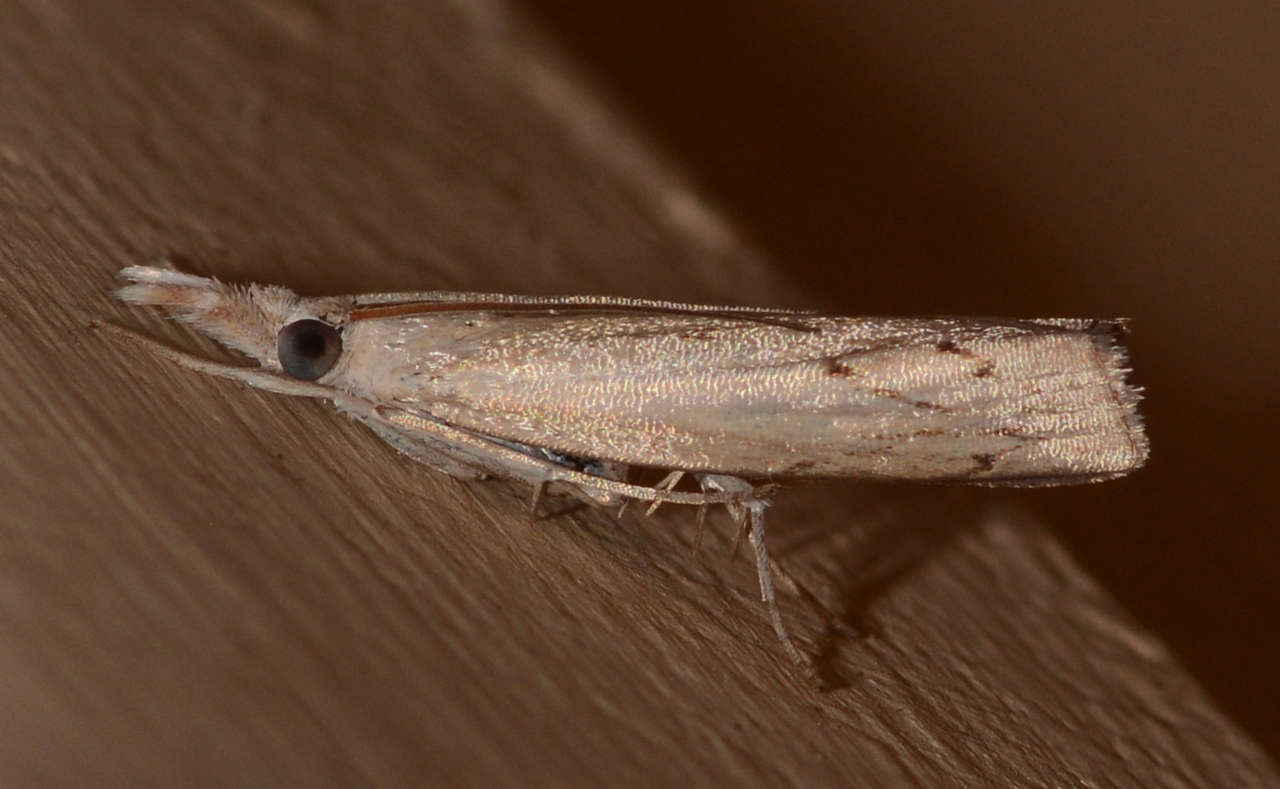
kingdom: Animalia
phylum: Arthropoda
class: Insecta
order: Lepidoptera
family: Crambidae
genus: Culladia
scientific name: Culladia cuneiferellus
